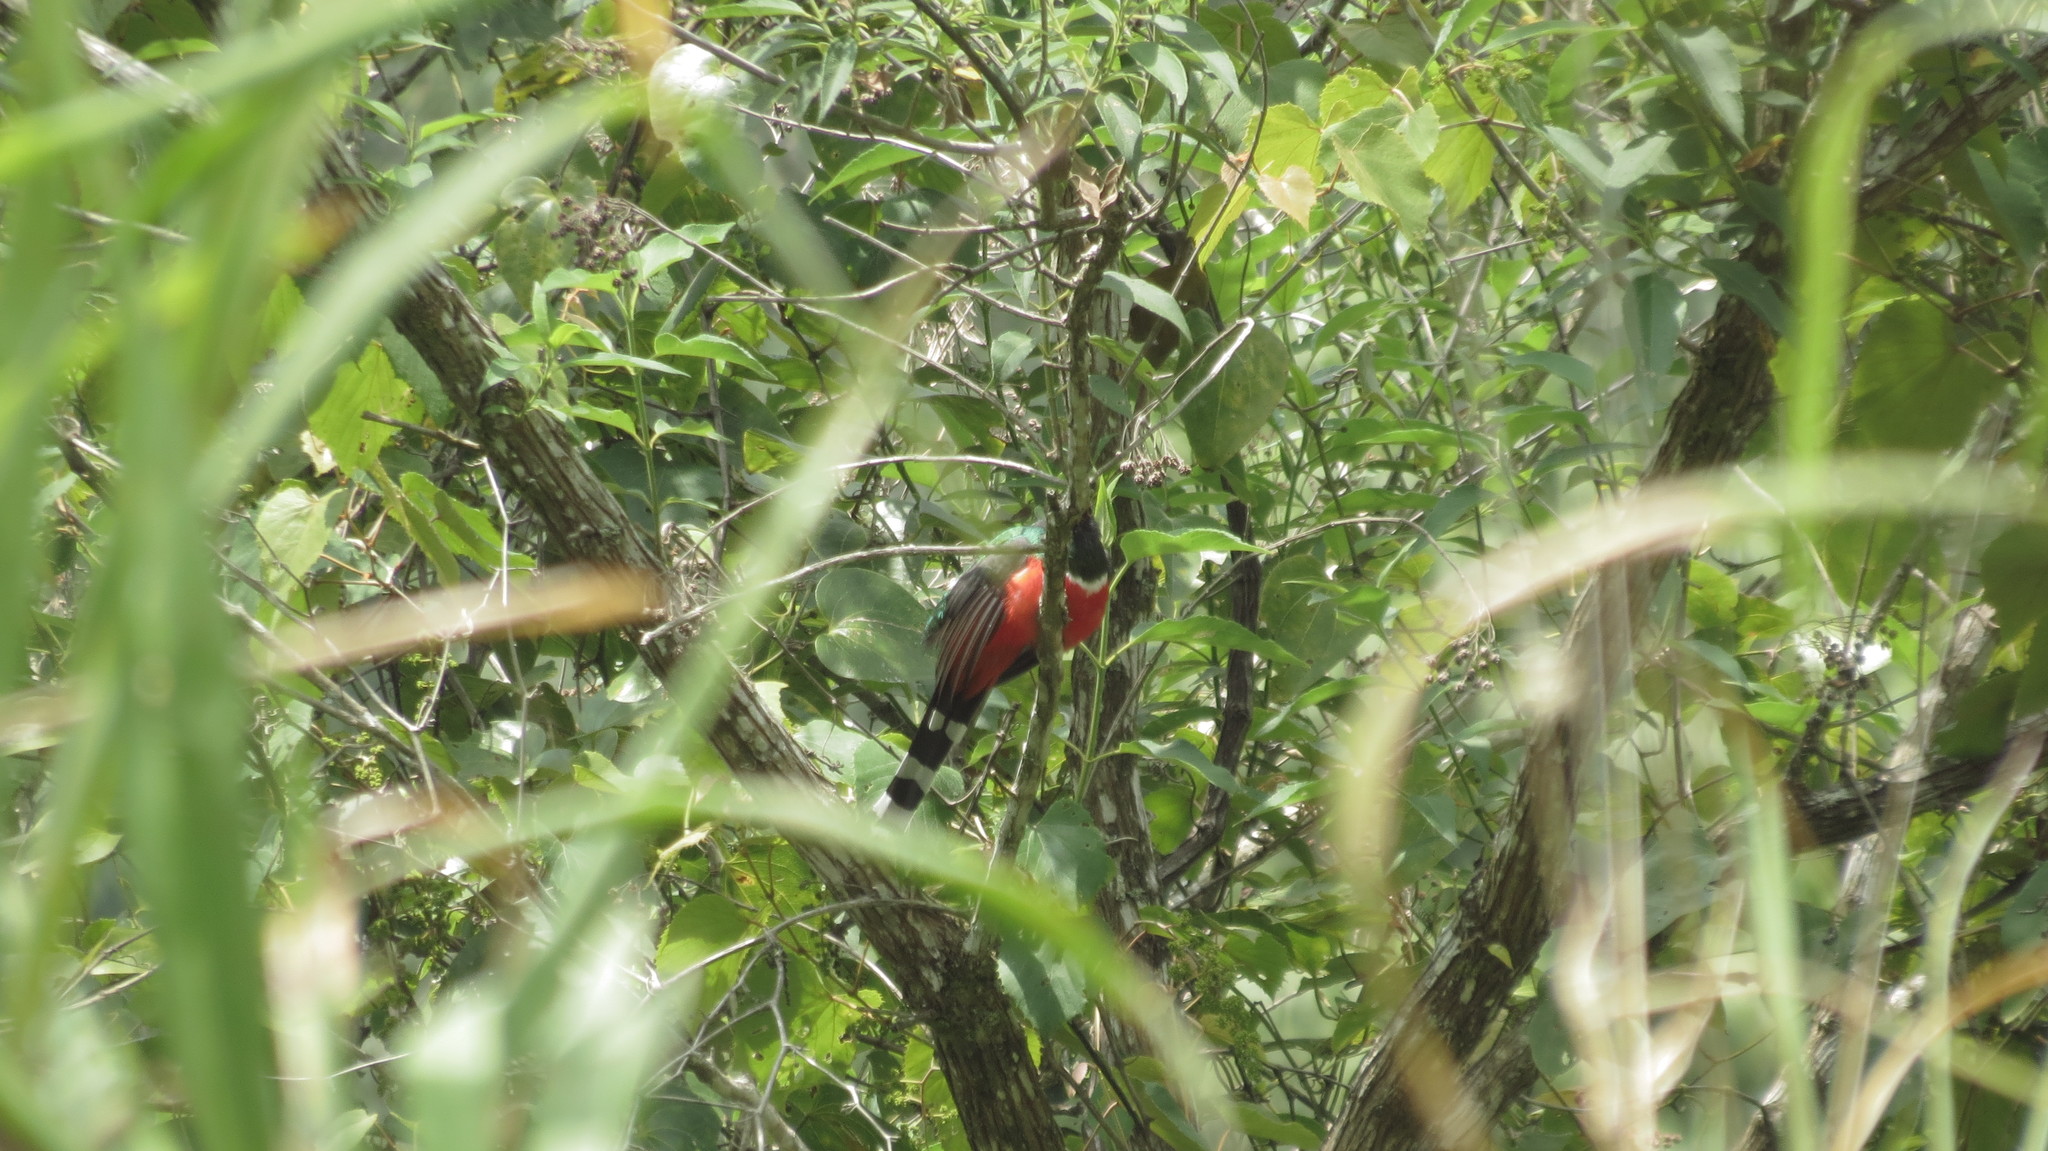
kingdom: Animalia
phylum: Chordata
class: Aves
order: Trogoniformes
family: Trogonidae
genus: Trogon
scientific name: Trogon mexicanus
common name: Mountain trogon
